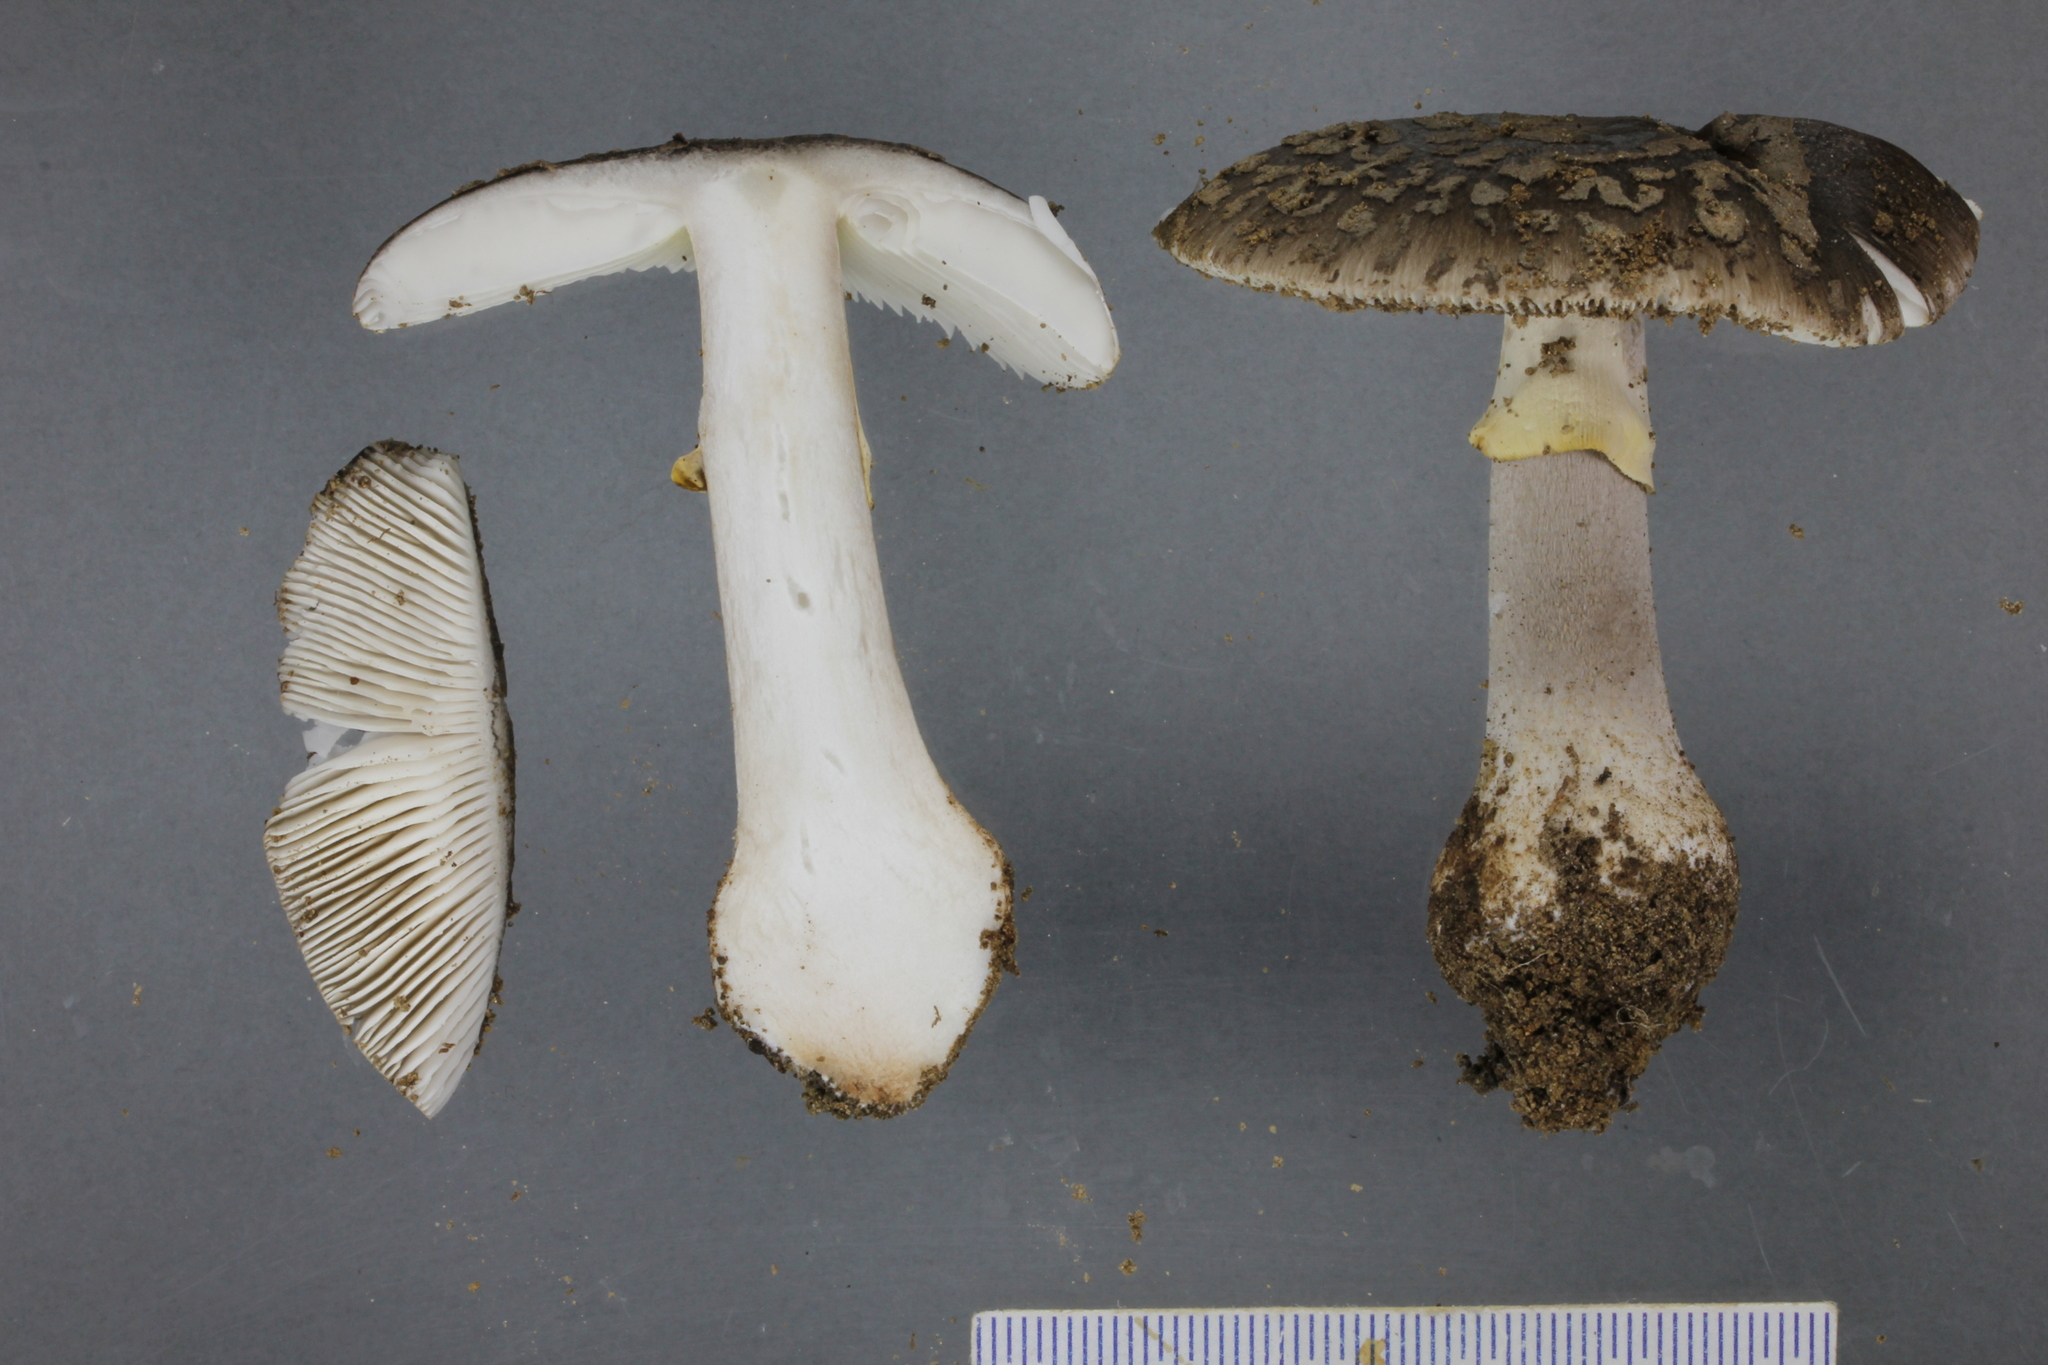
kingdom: Fungi
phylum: Basidiomycota
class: Agaricomycetes
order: Agaricales
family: Amanitaceae
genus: Amanita
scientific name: Amanita nothofagi
